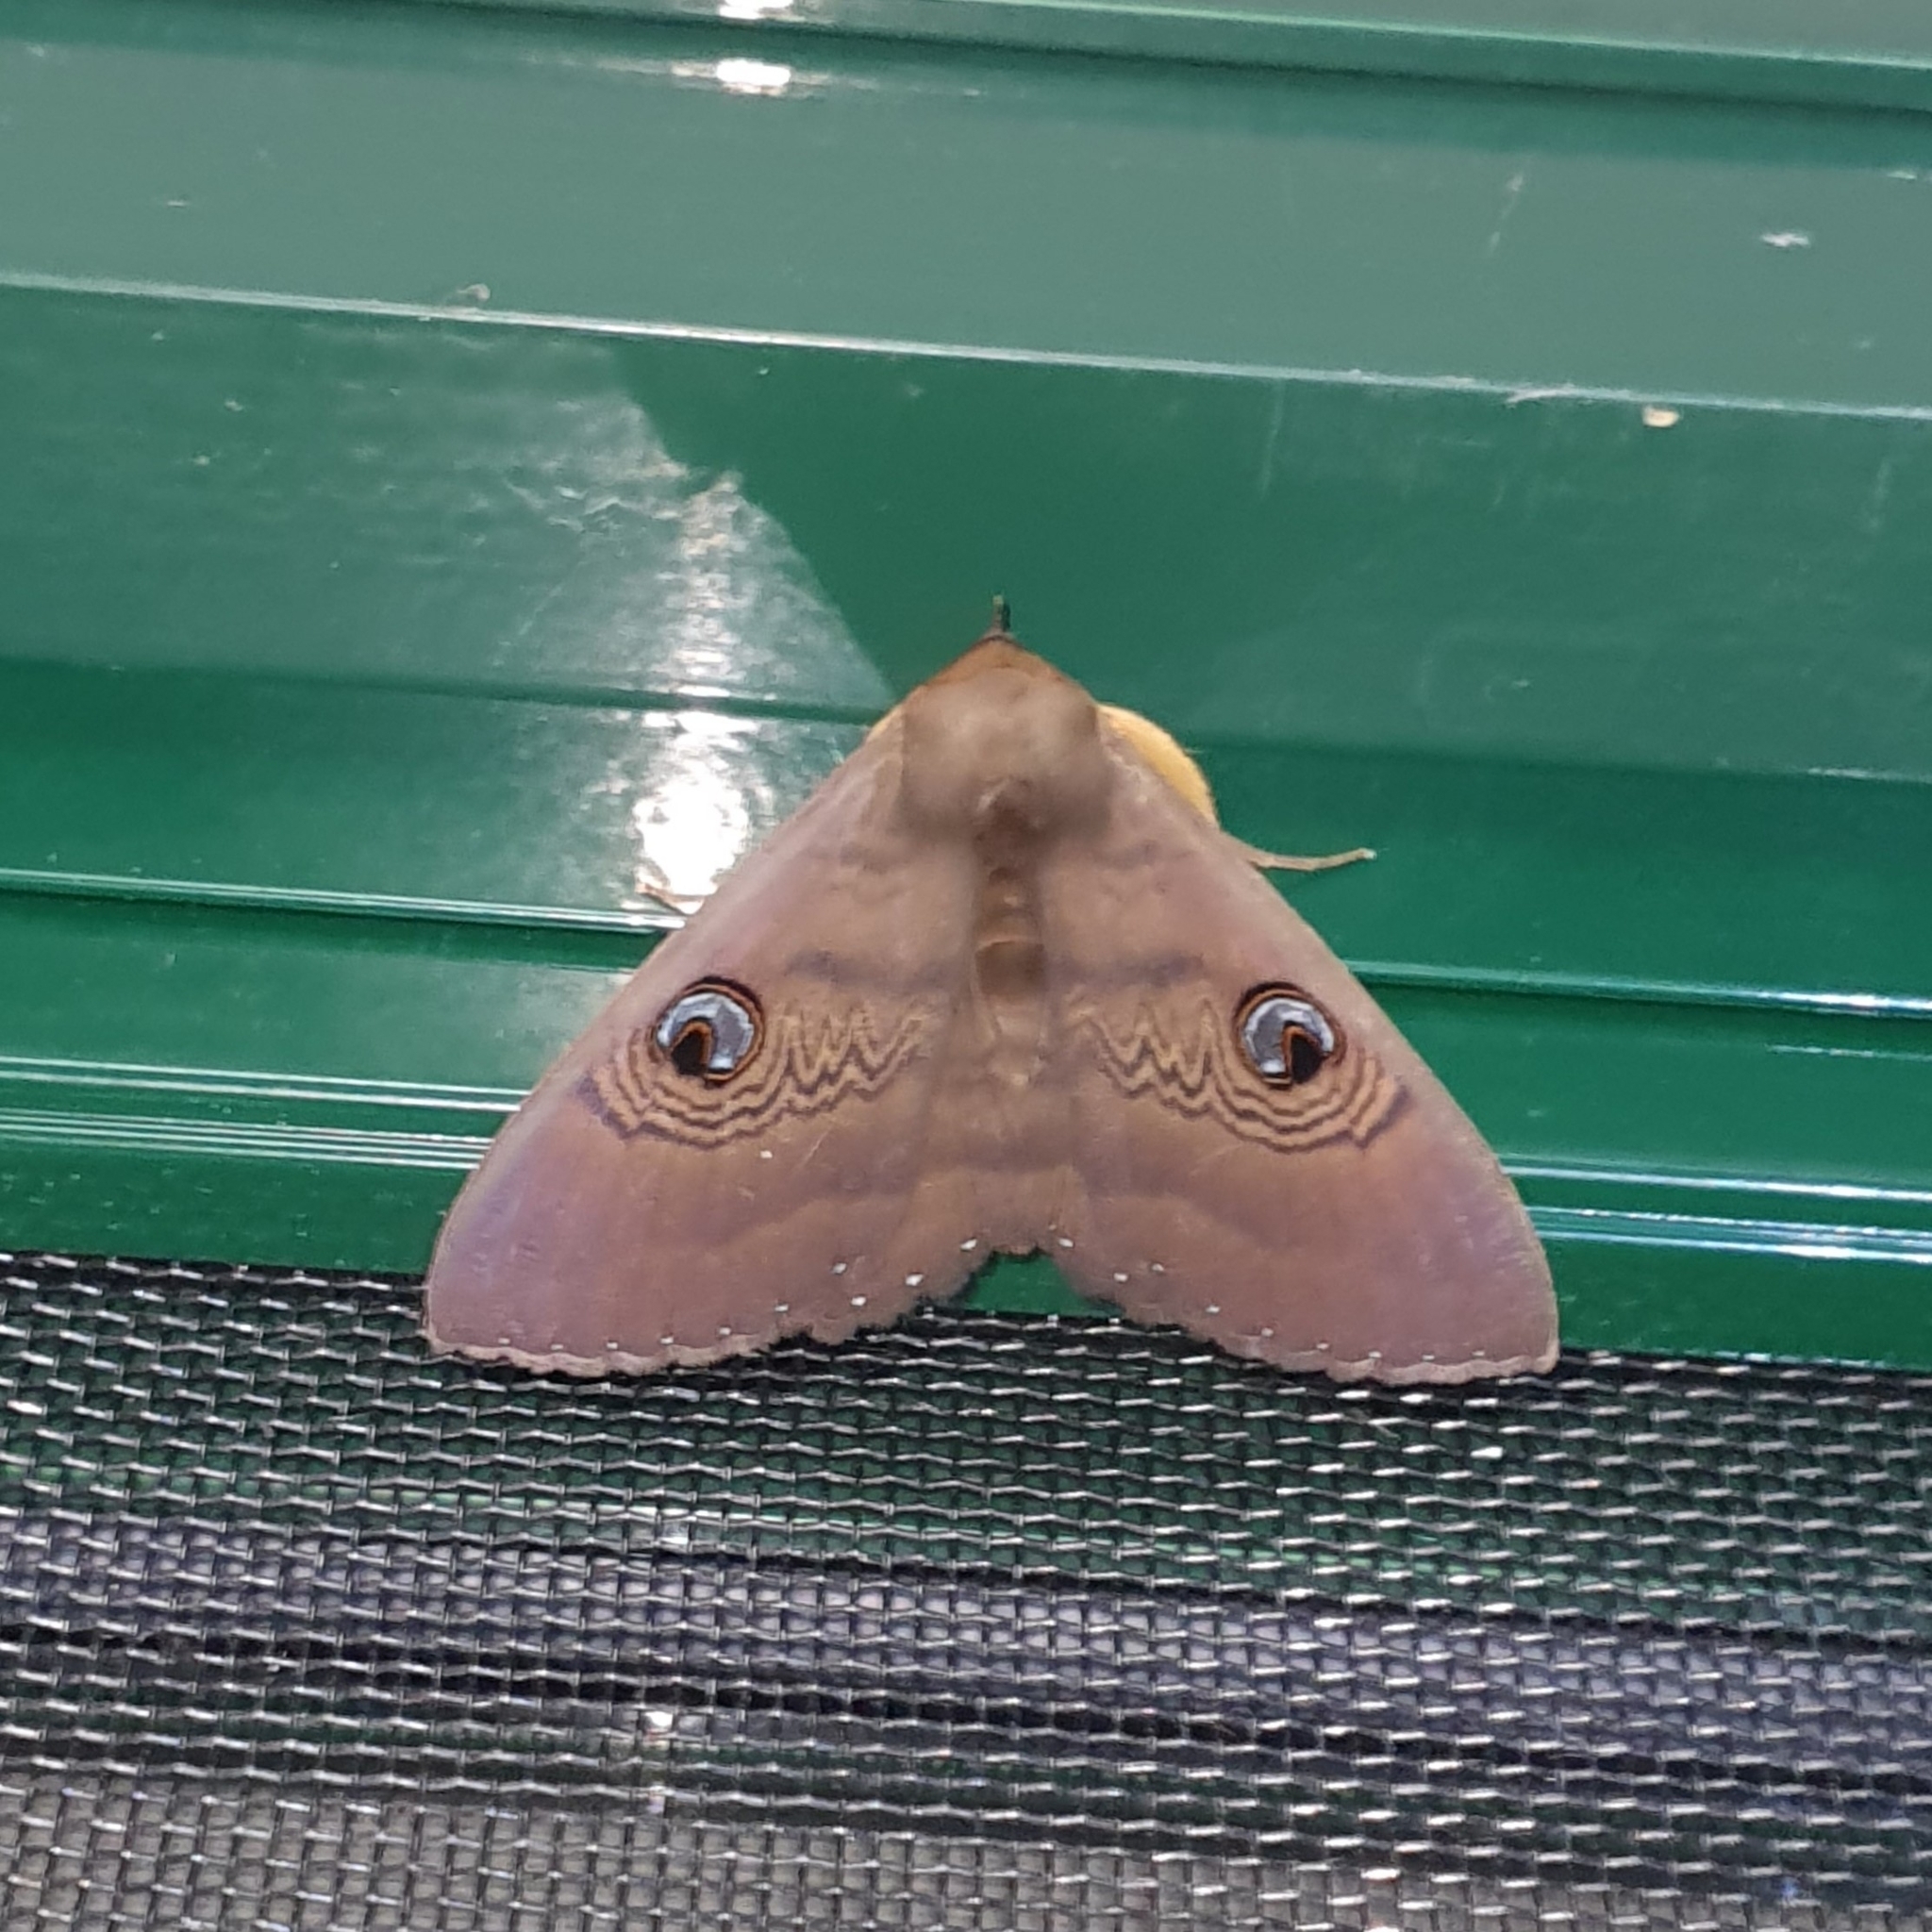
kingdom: Animalia
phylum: Arthropoda
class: Insecta
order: Lepidoptera
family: Erebidae
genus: Dasypodia
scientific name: Dasypodia selenophora
